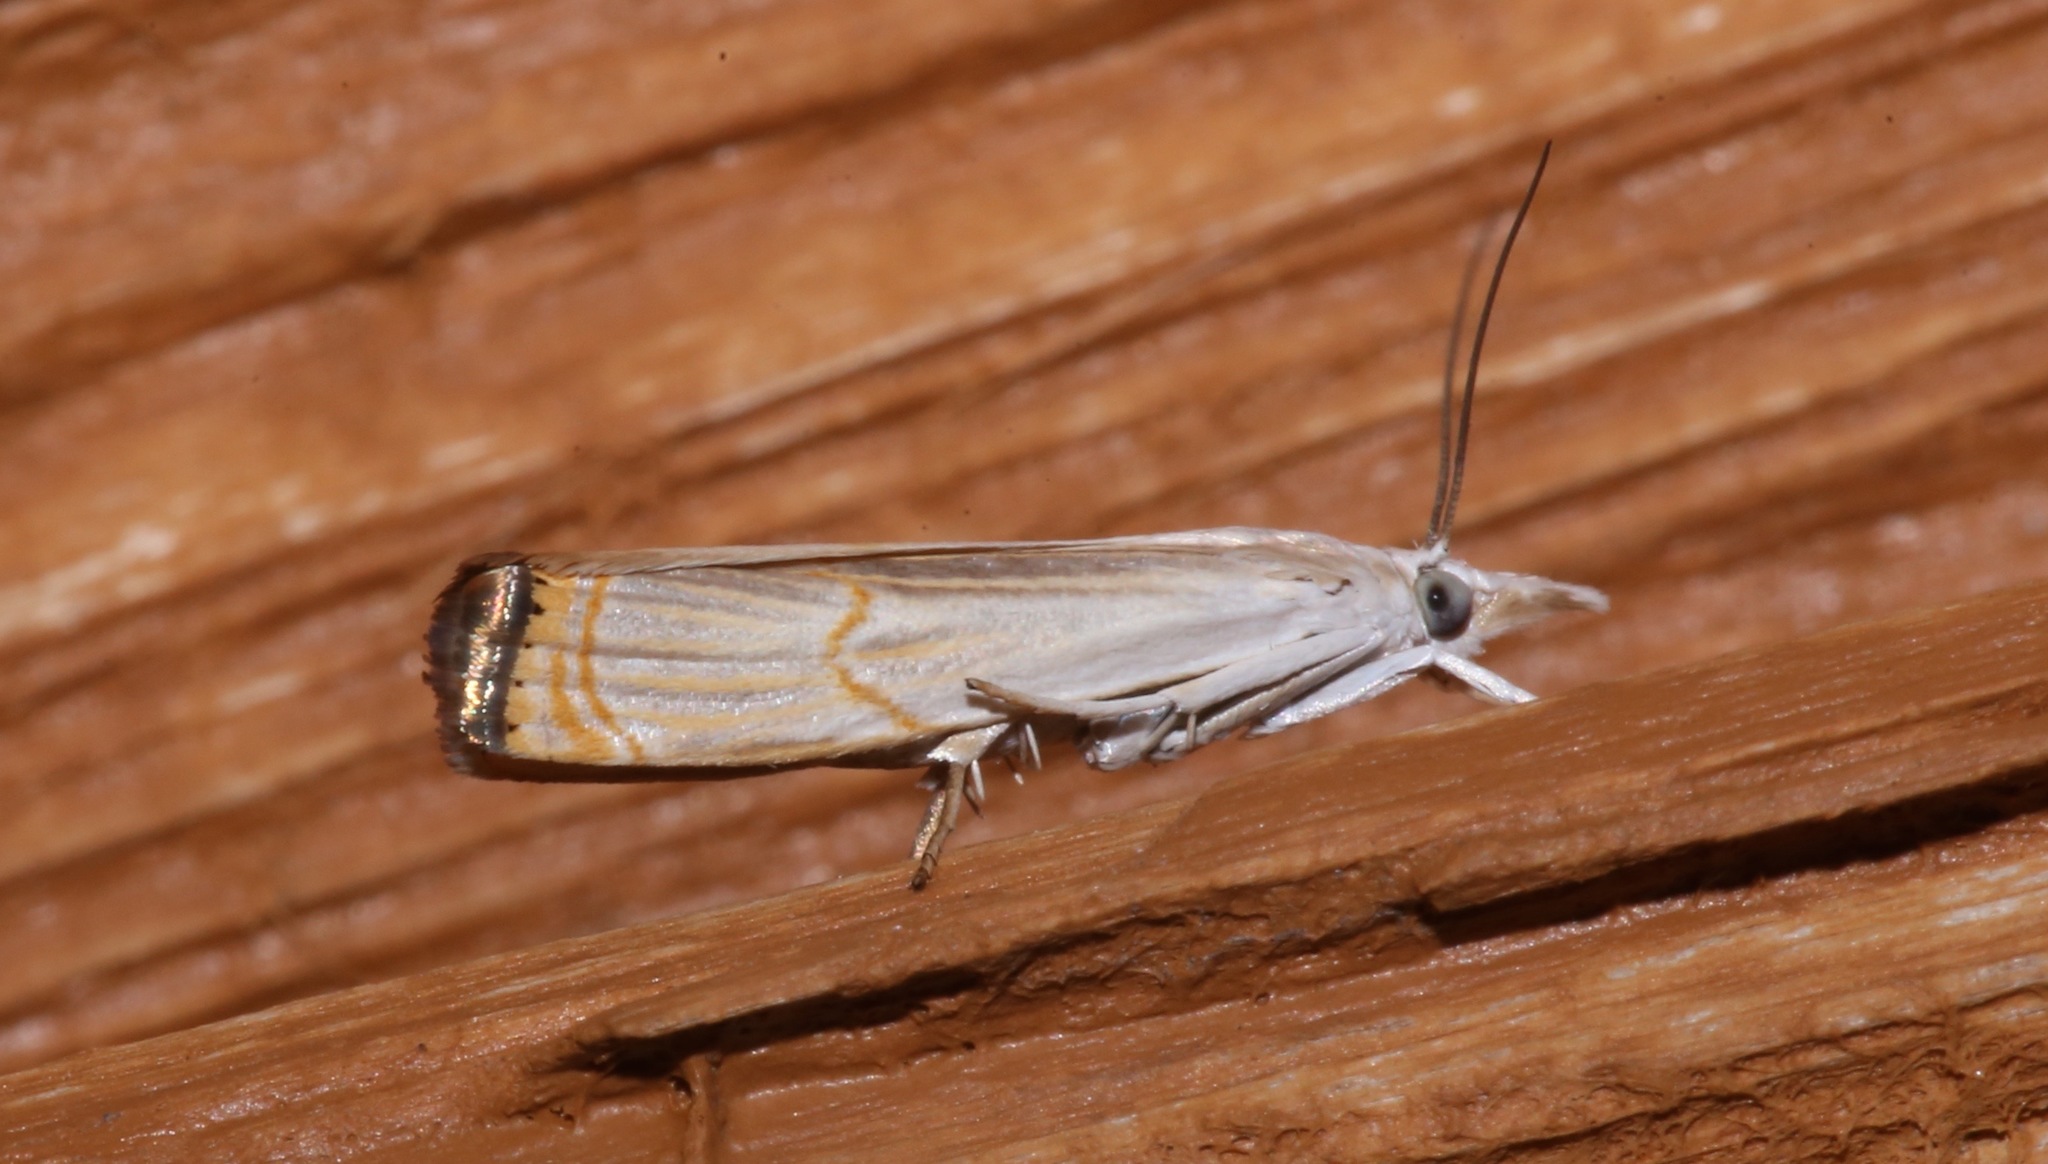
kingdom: Animalia
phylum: Arthropoda
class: Insecta
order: Lepidoptera
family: Crambidae
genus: Parapediasia
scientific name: Parapediasia decorellus
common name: Graceful grass-veneer
